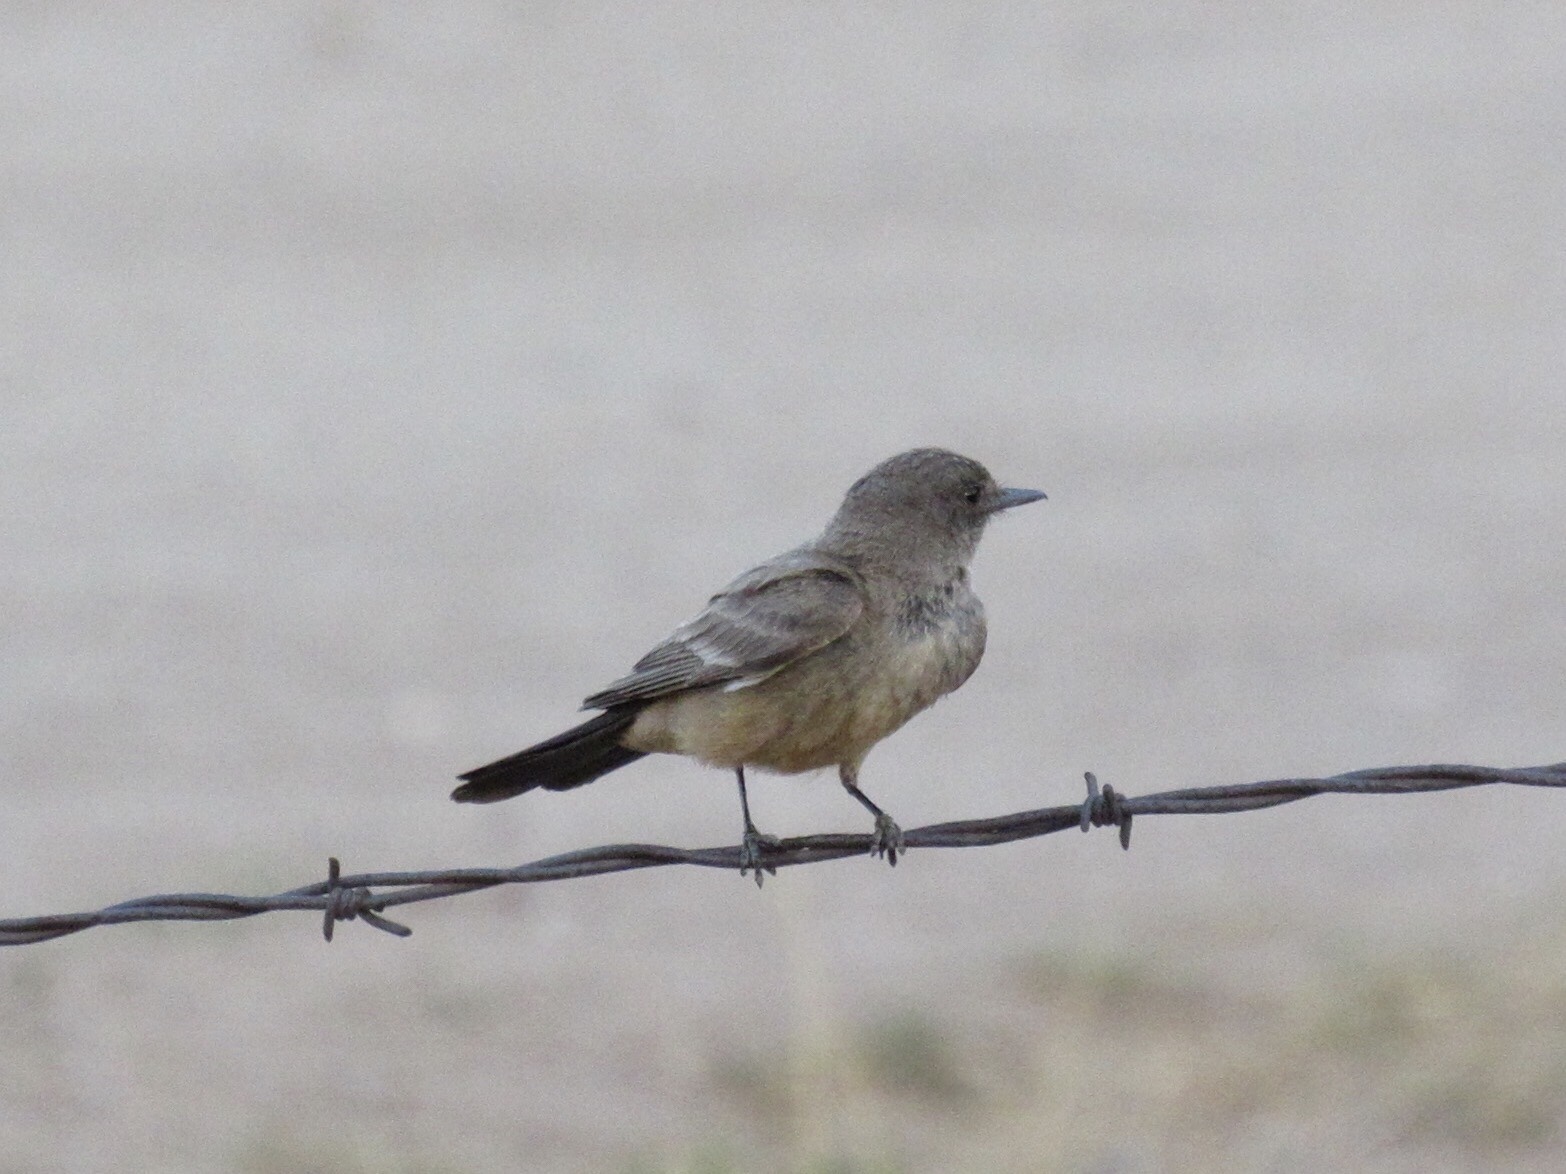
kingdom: Animalia
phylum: Chordata
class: Aves
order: Passeriformes
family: Tyrannidae
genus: Sayornis
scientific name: Sayornis saya
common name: Say's phoebe
